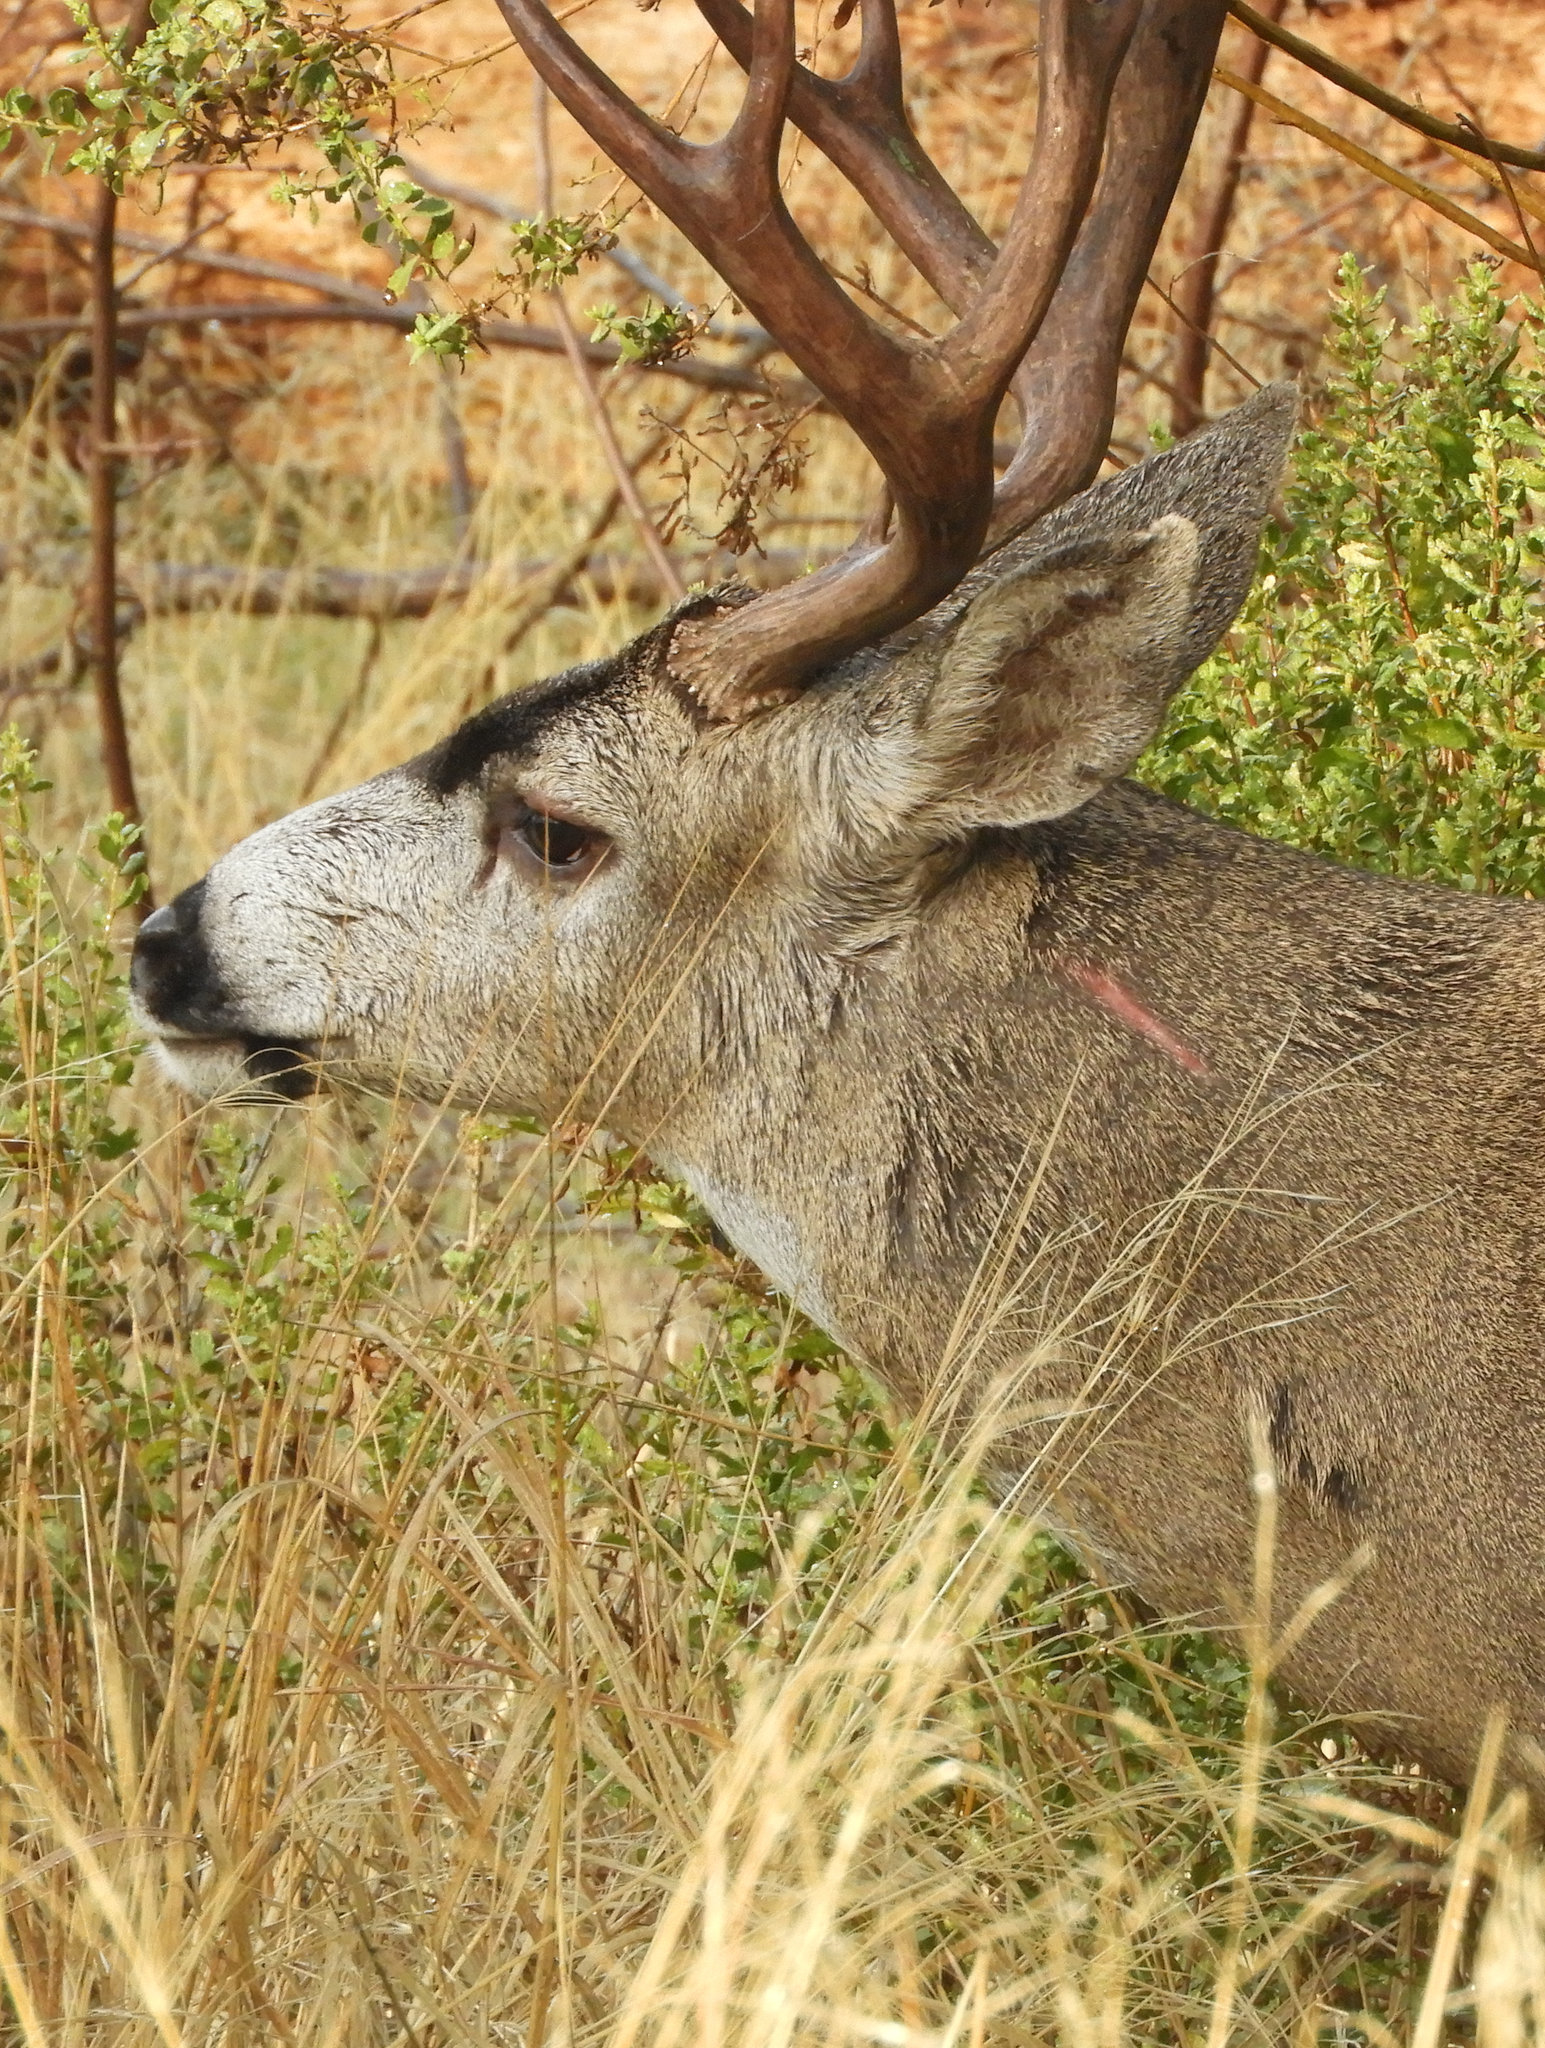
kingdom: Animalia
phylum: Chordata
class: Mammalia
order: Artiodactyla
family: Cervidae
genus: Odocoileus
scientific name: Odocoileus hemionus
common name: Mule deer
